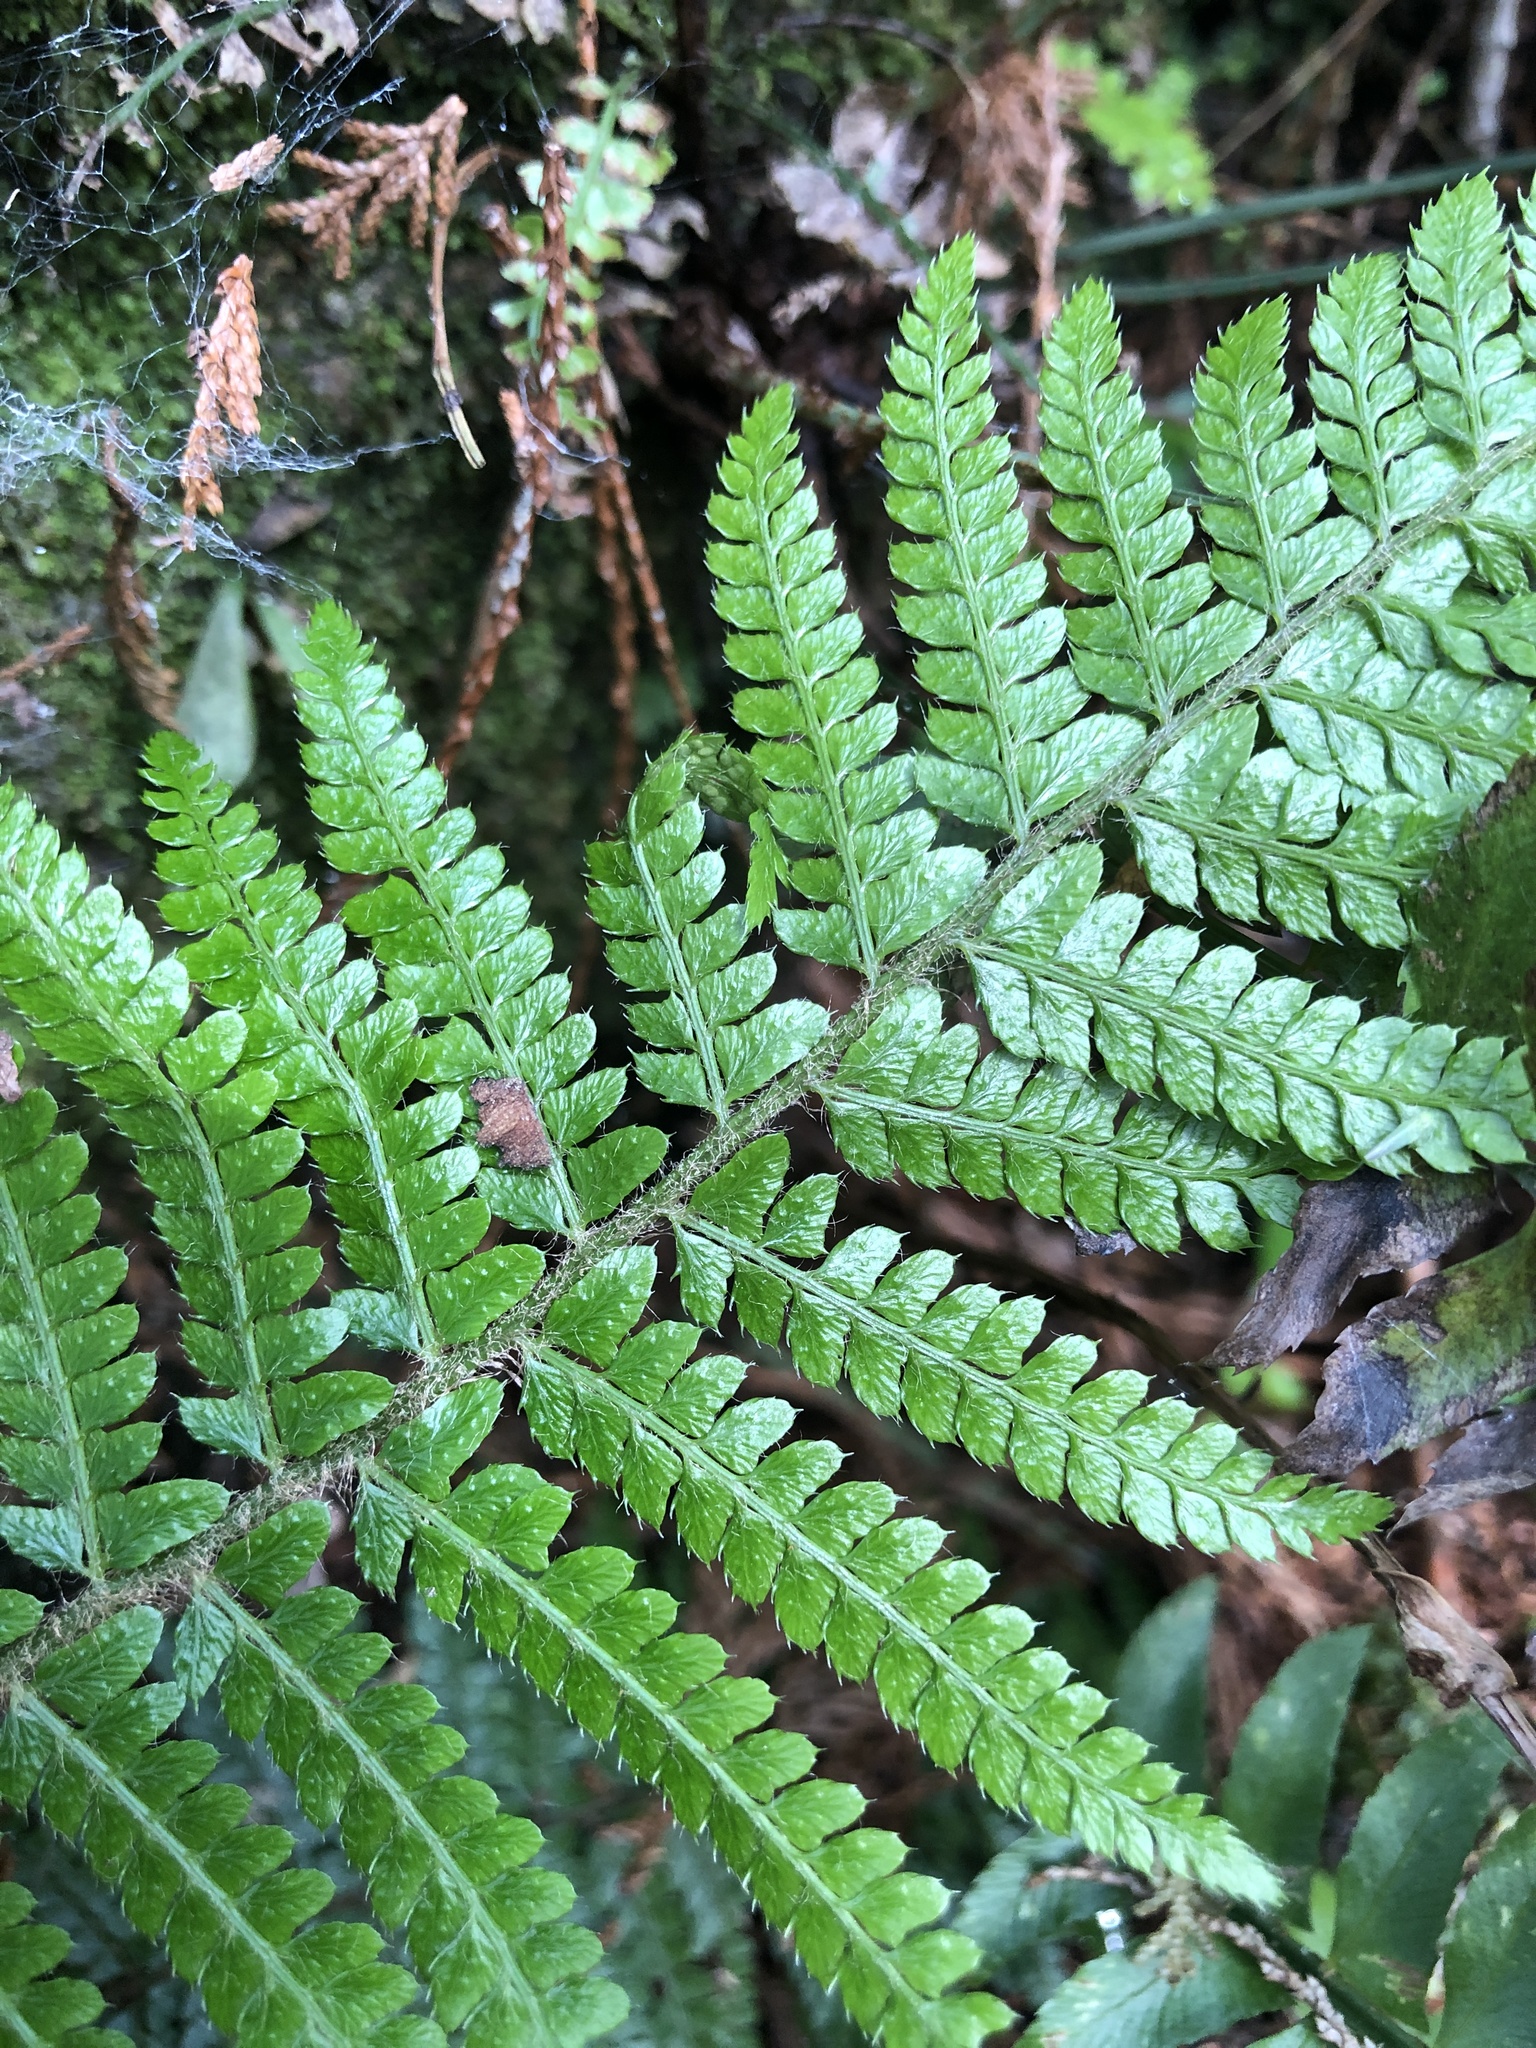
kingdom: Plantae
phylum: Tracheophyta
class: Polypodiopsida
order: Polypodiales
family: Dryopteridaceae
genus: Polystichum
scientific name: Polystichum parvipinnulum
